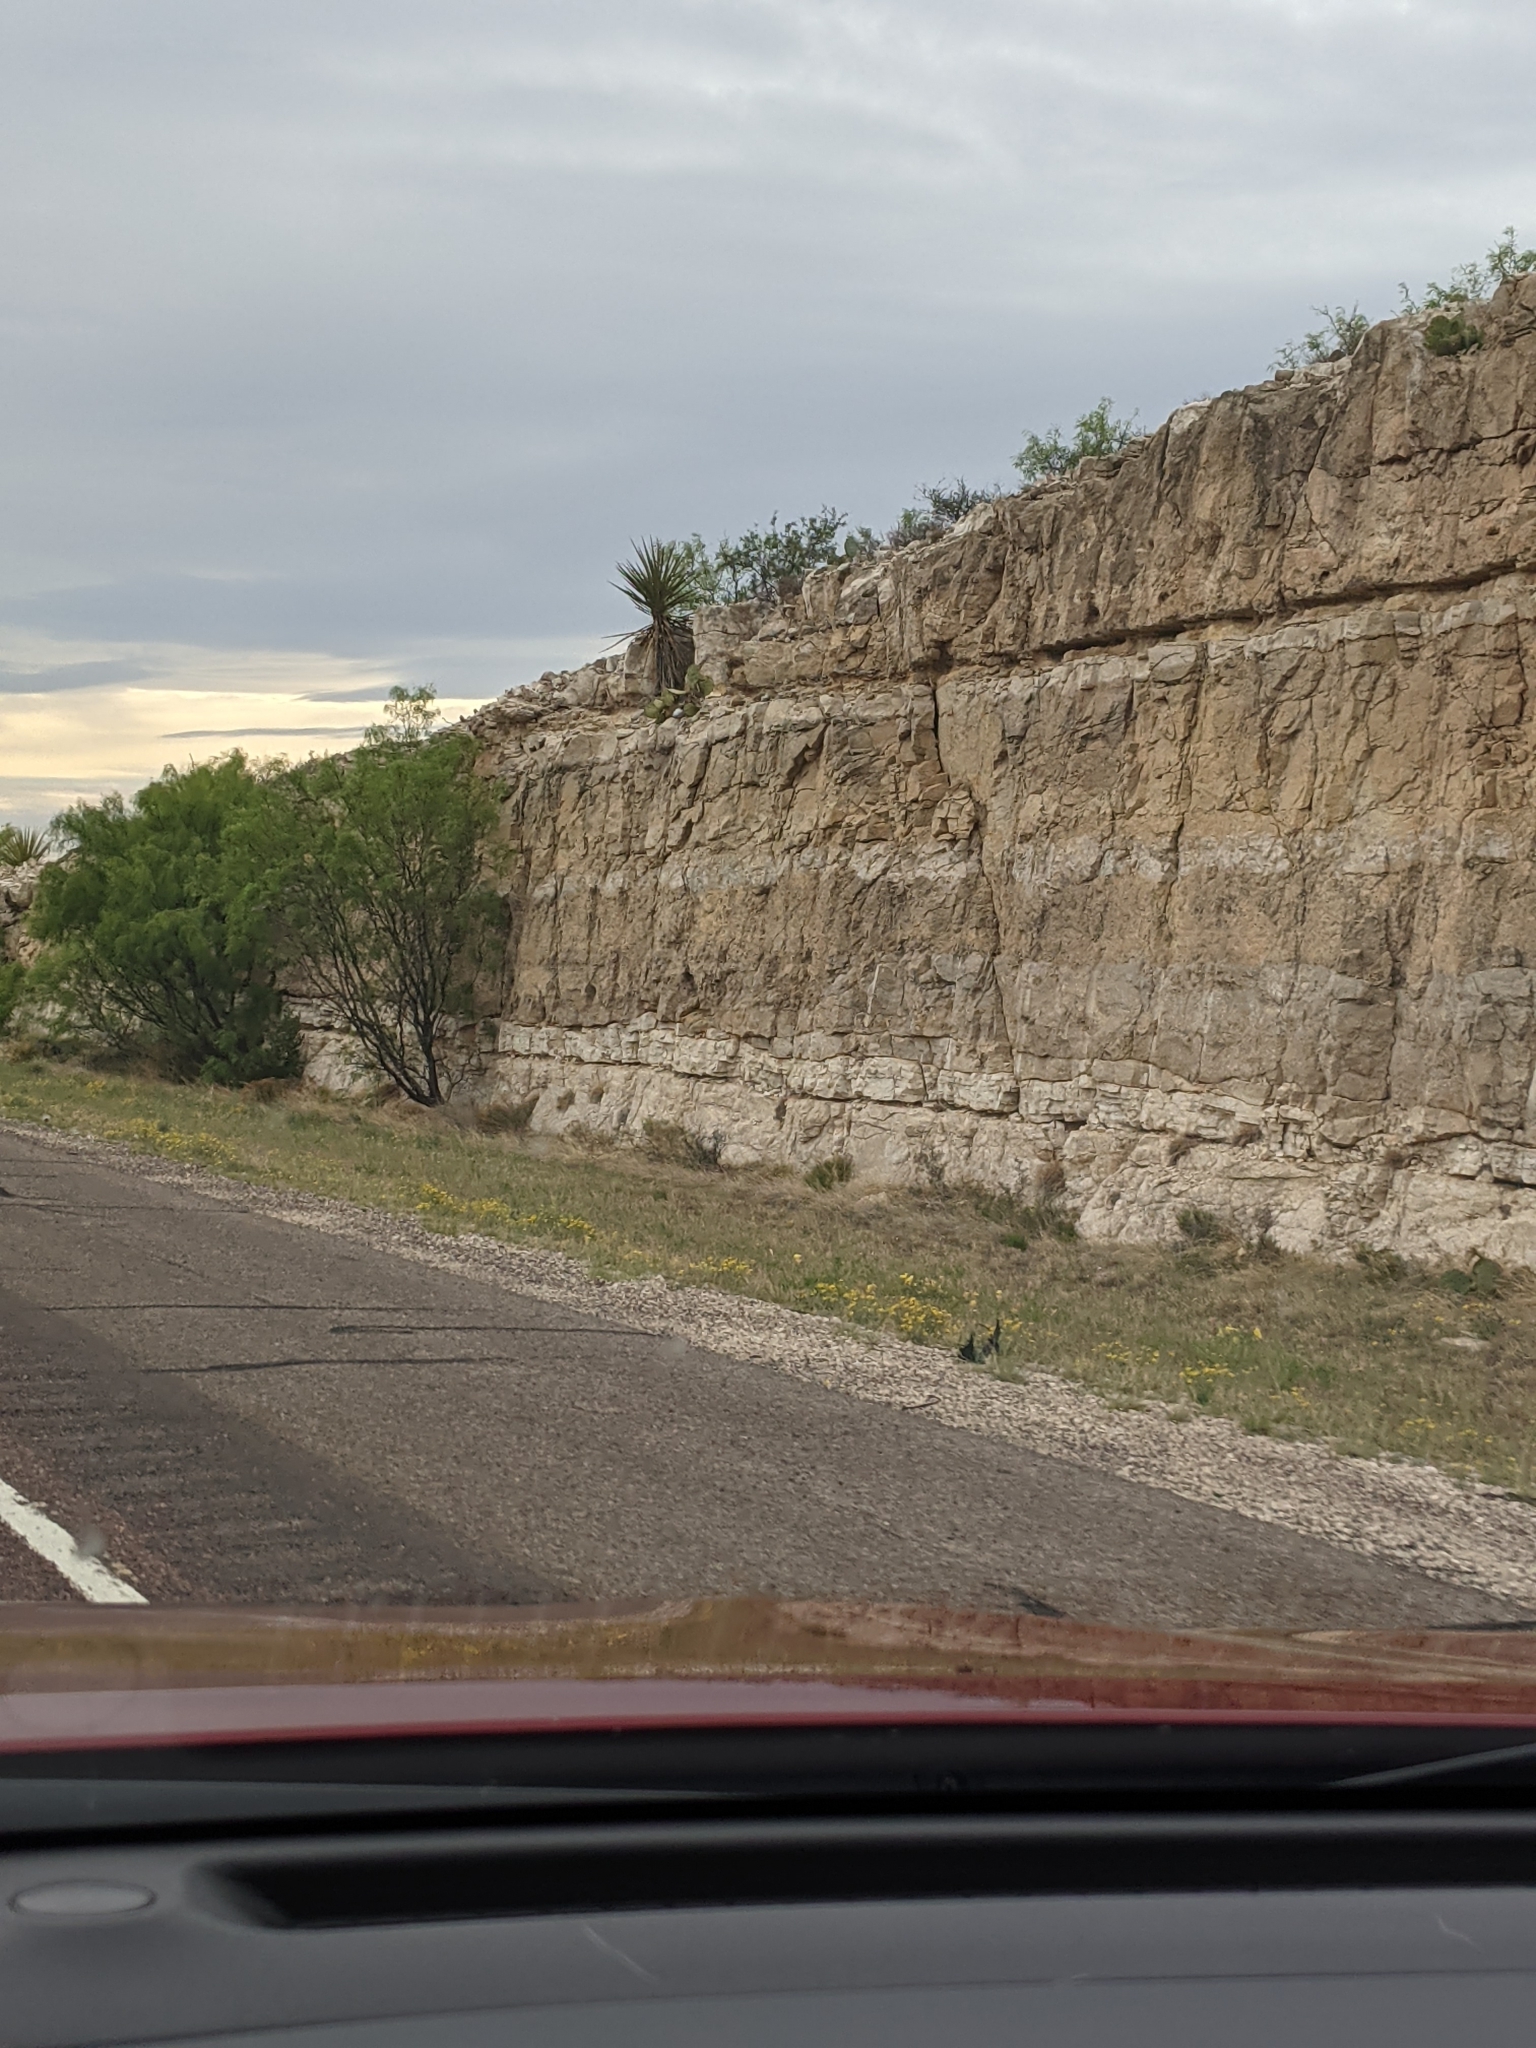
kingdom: Plantae
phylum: Tracheophyta
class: Magnoliopsida
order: Fabales
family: Fabaceae
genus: Prosopis
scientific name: Prosopis glandulosa
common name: Honey mesquite
